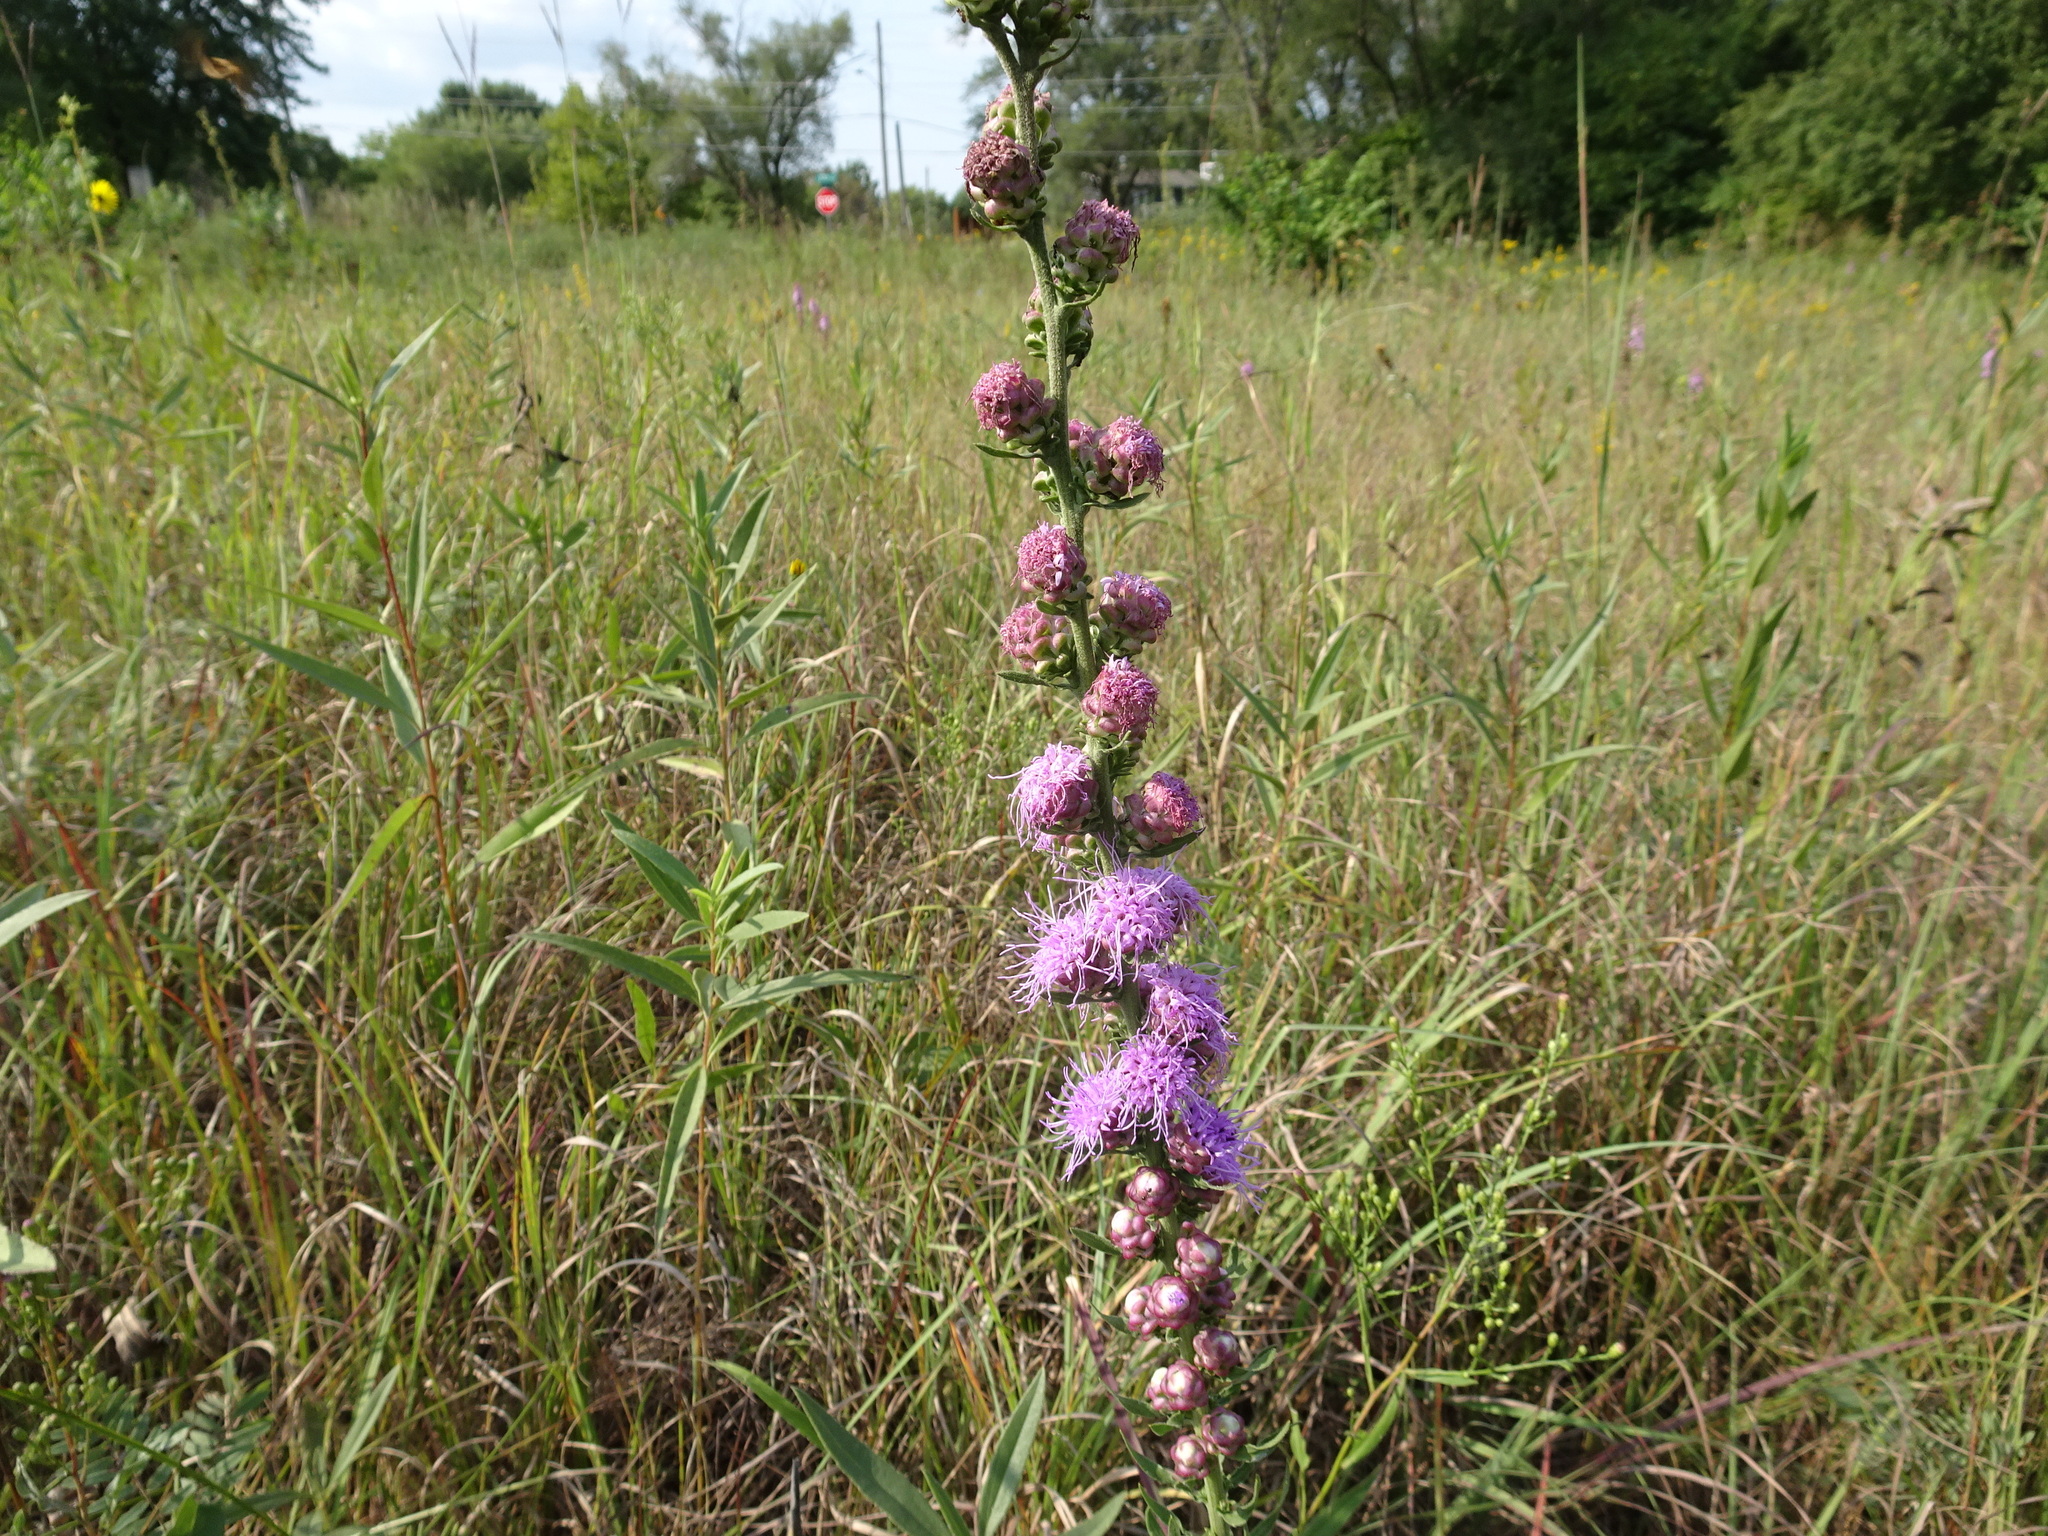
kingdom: Plantae
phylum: Tracheophyta
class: Magnoliopsida
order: Asterales
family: Asteraceae
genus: Liatris
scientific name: Liatris aspera
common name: Lacerate blazing-star
